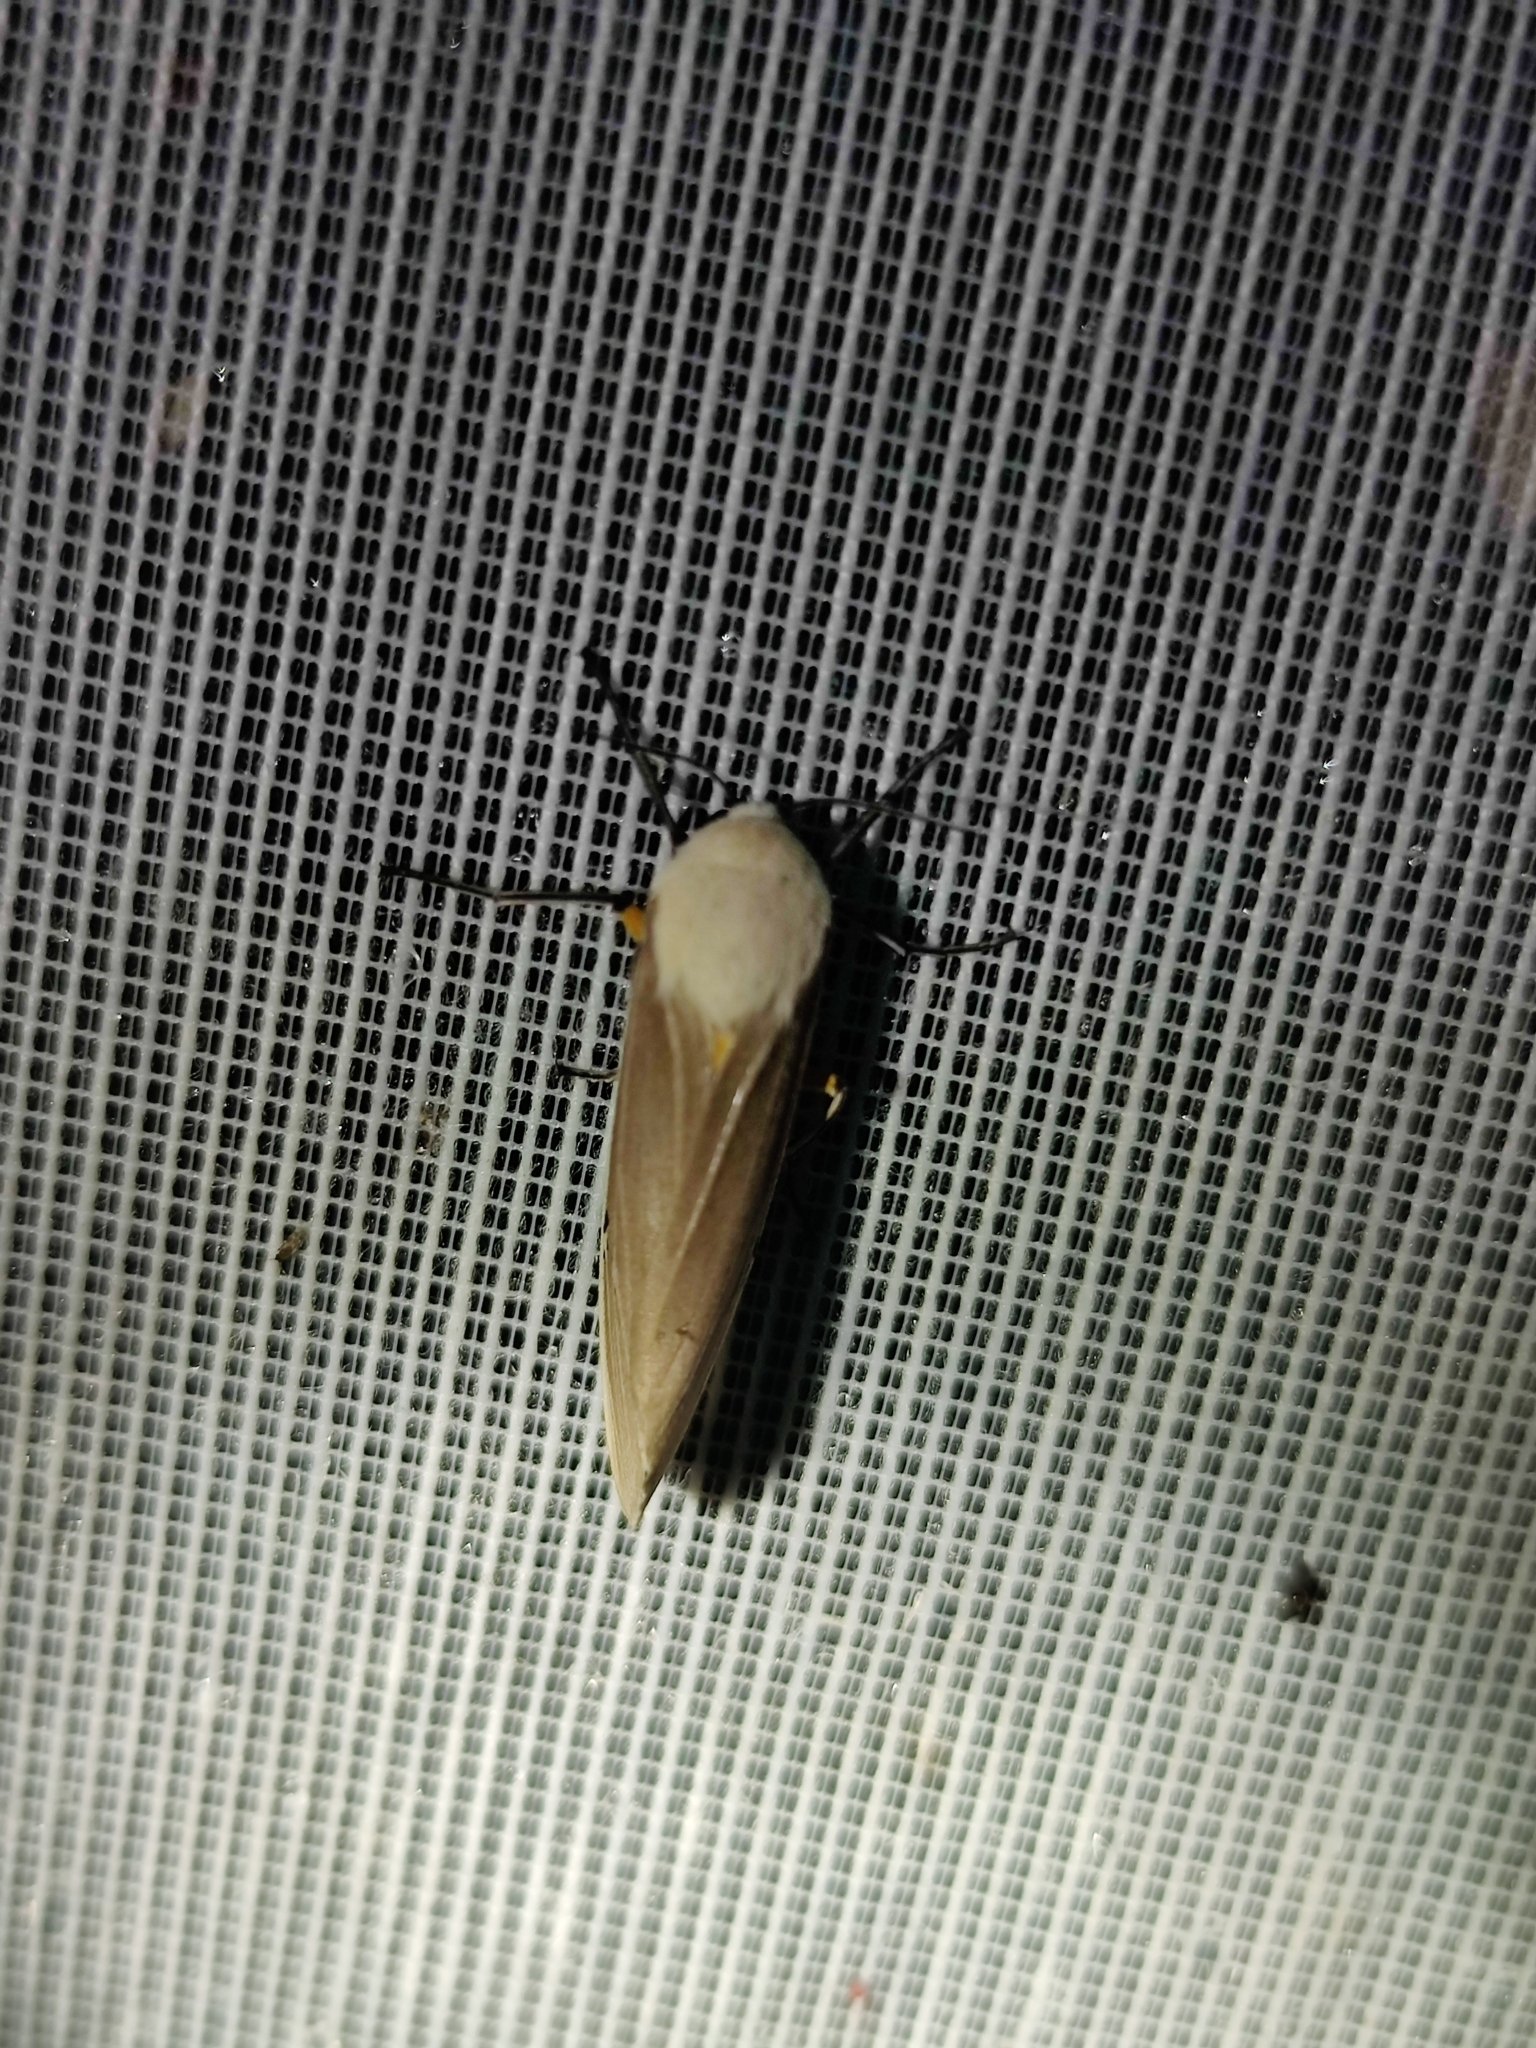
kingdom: Animalia
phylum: Arthropoda
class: Insecta
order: Lepidoptera
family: Erebidae
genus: Creatonotos
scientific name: Creatonotos transiens
